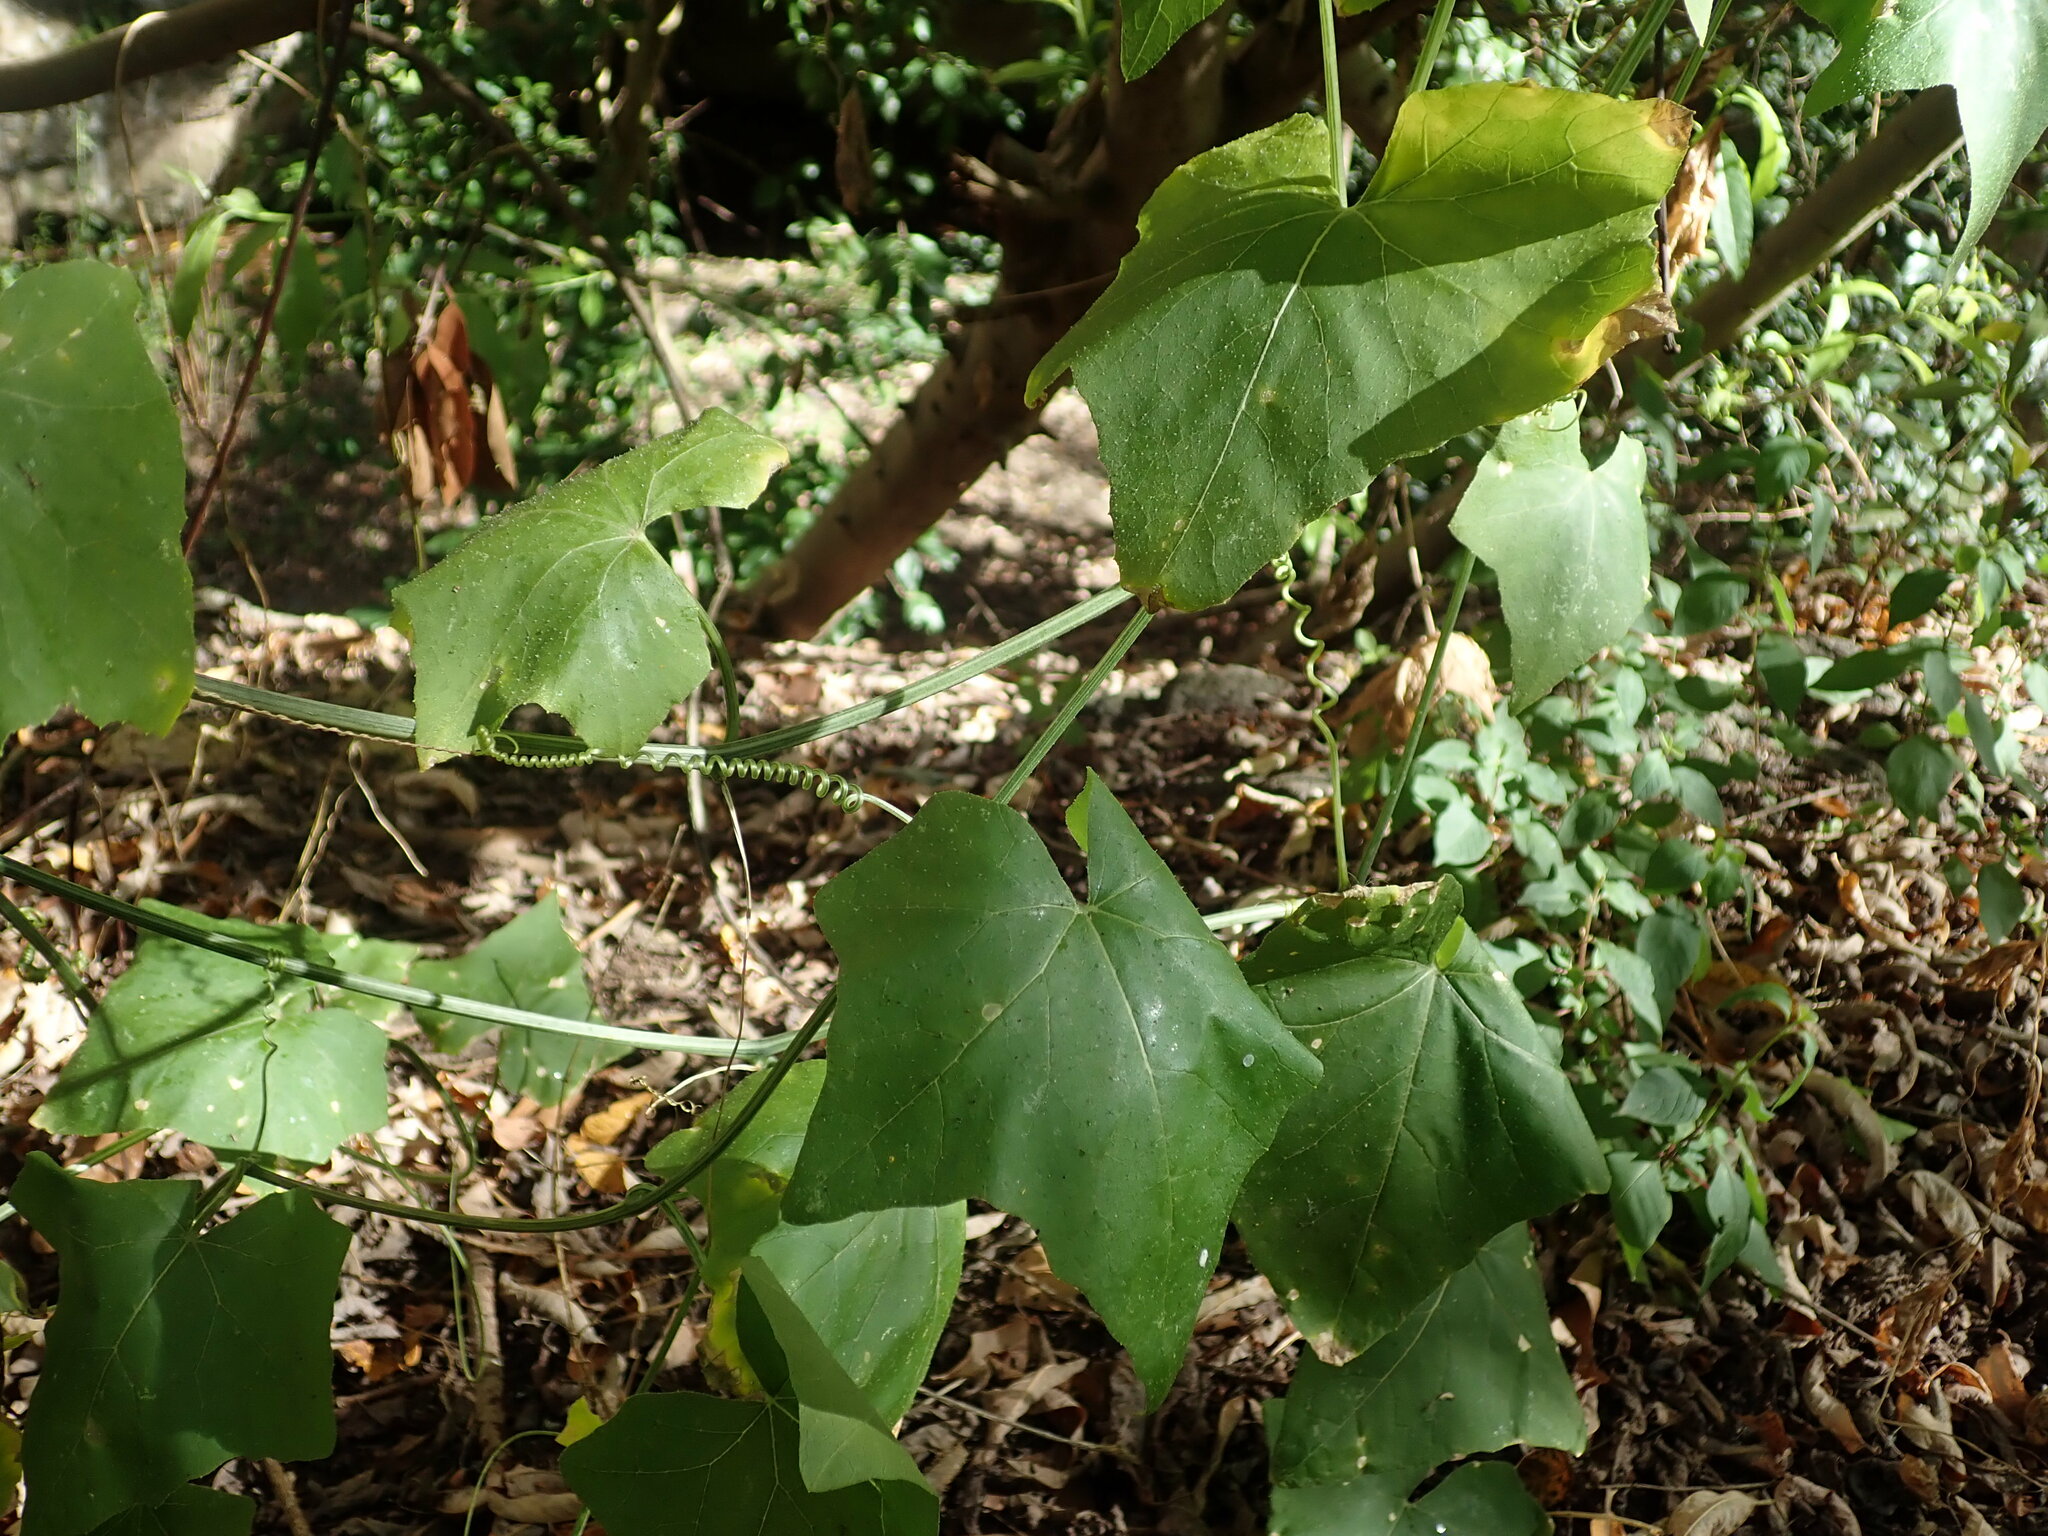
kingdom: Plantae
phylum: Tracheophyta
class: Magnoliopsida
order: Cucurbitales
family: Cucurbitaceae
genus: Bryonia
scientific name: Bryonia verrucosa
